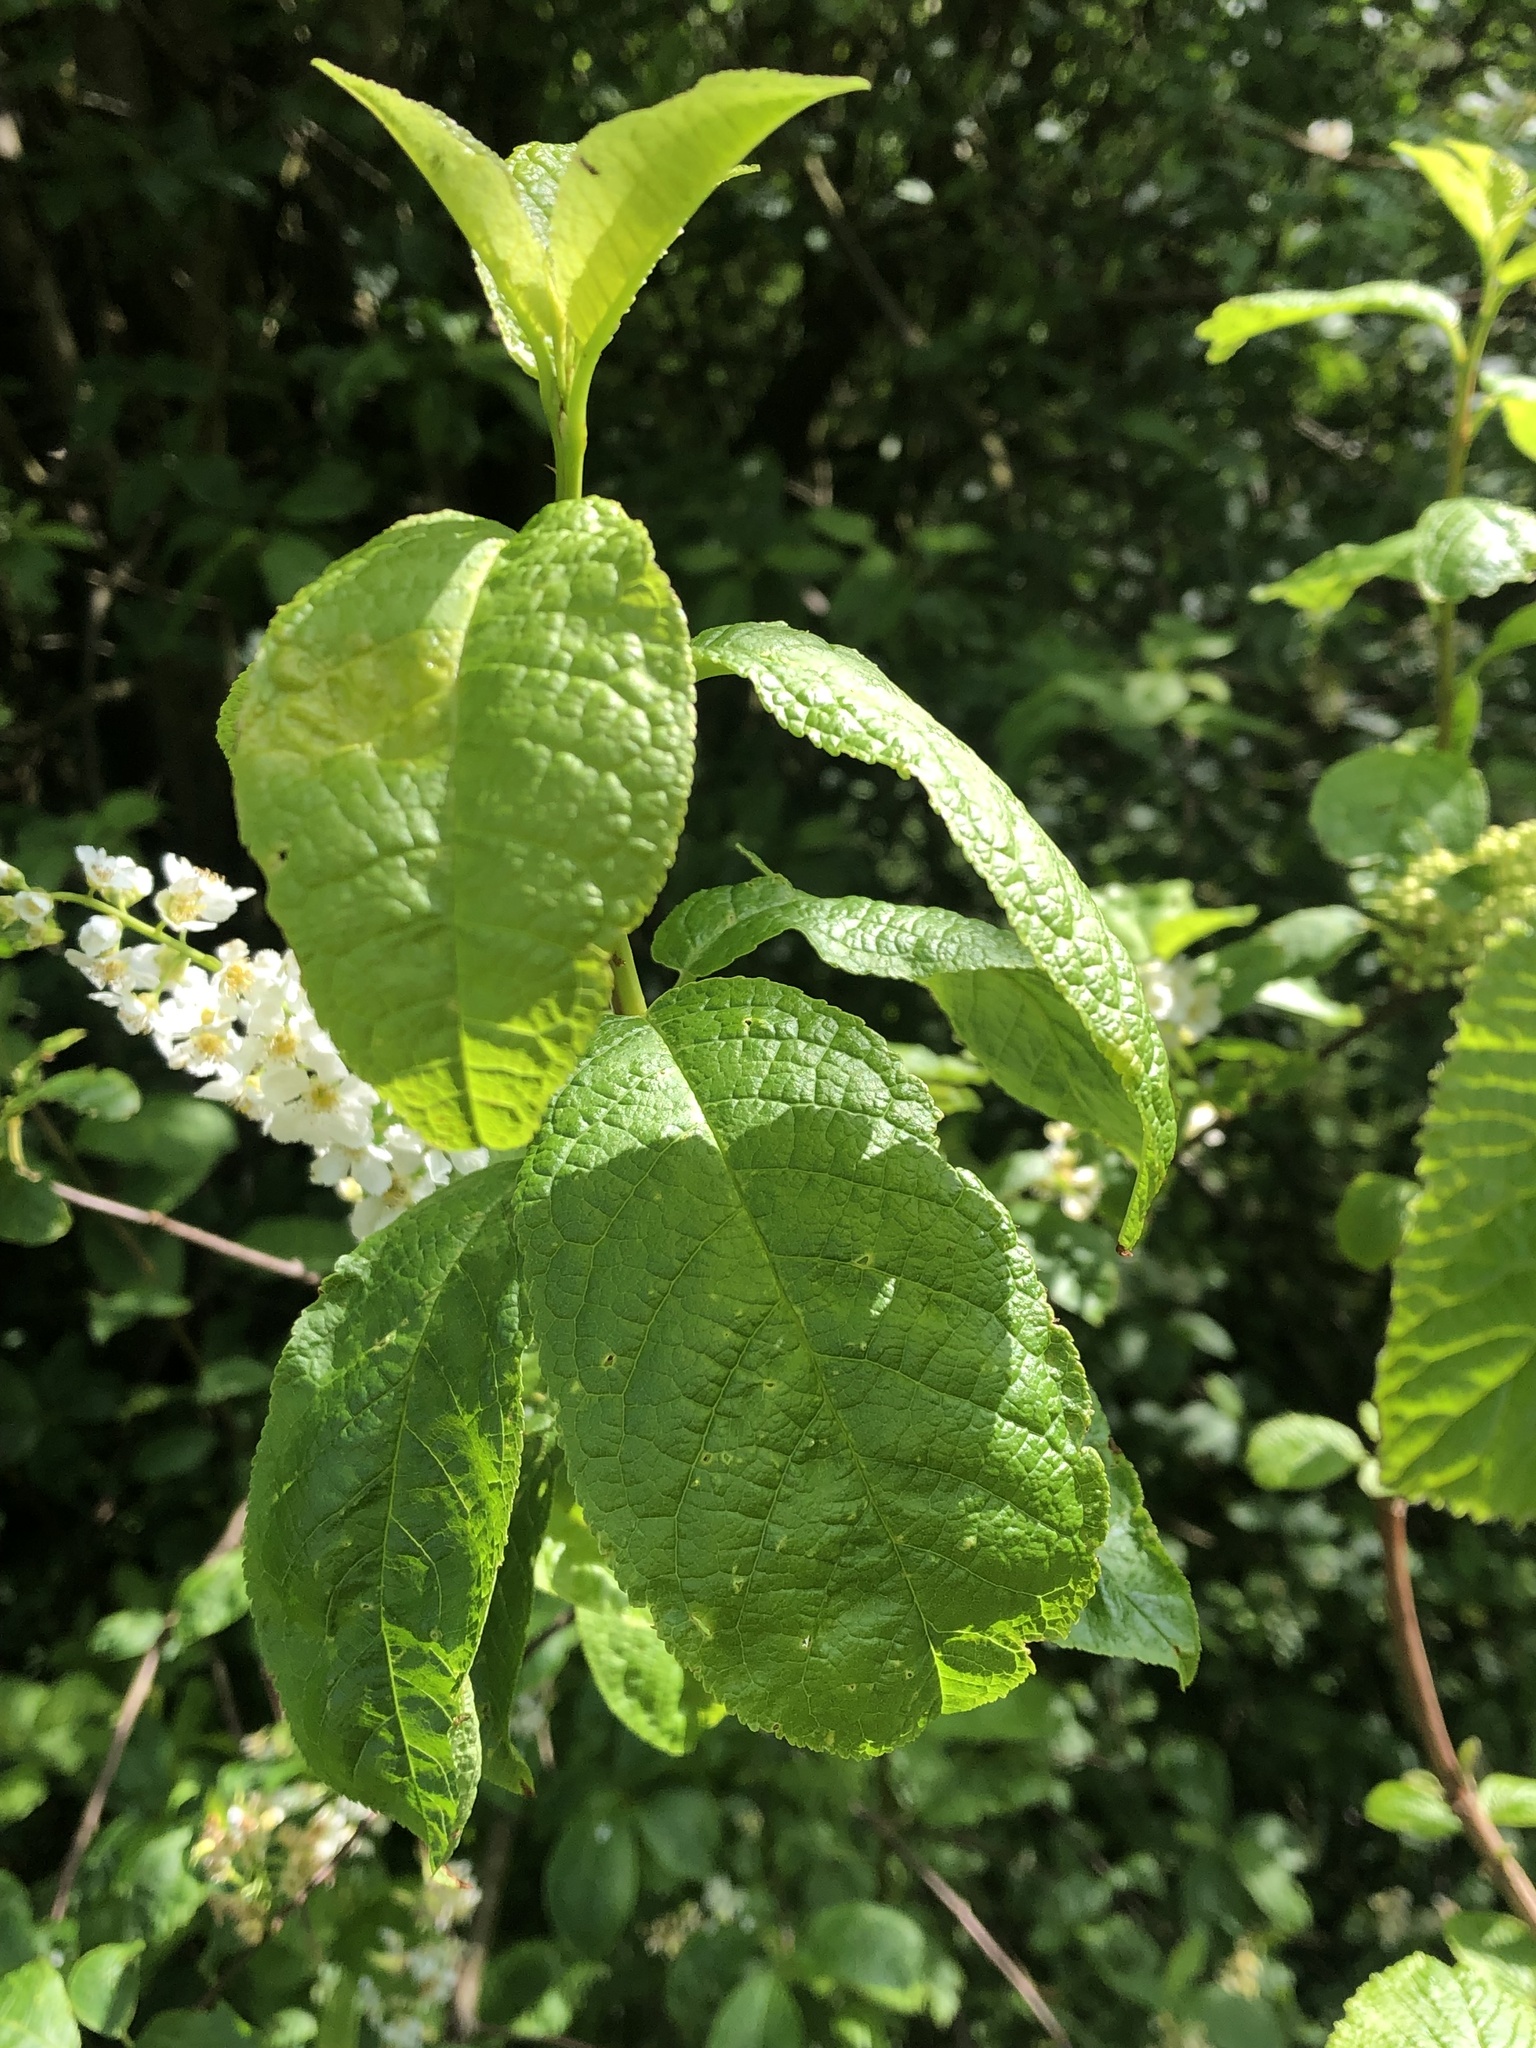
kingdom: Plantae
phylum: Tracheophyta
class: Magnoliopsida
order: Rosales
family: Rosaceae
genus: Prunus
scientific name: Prunus padus
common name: Bird cherry
